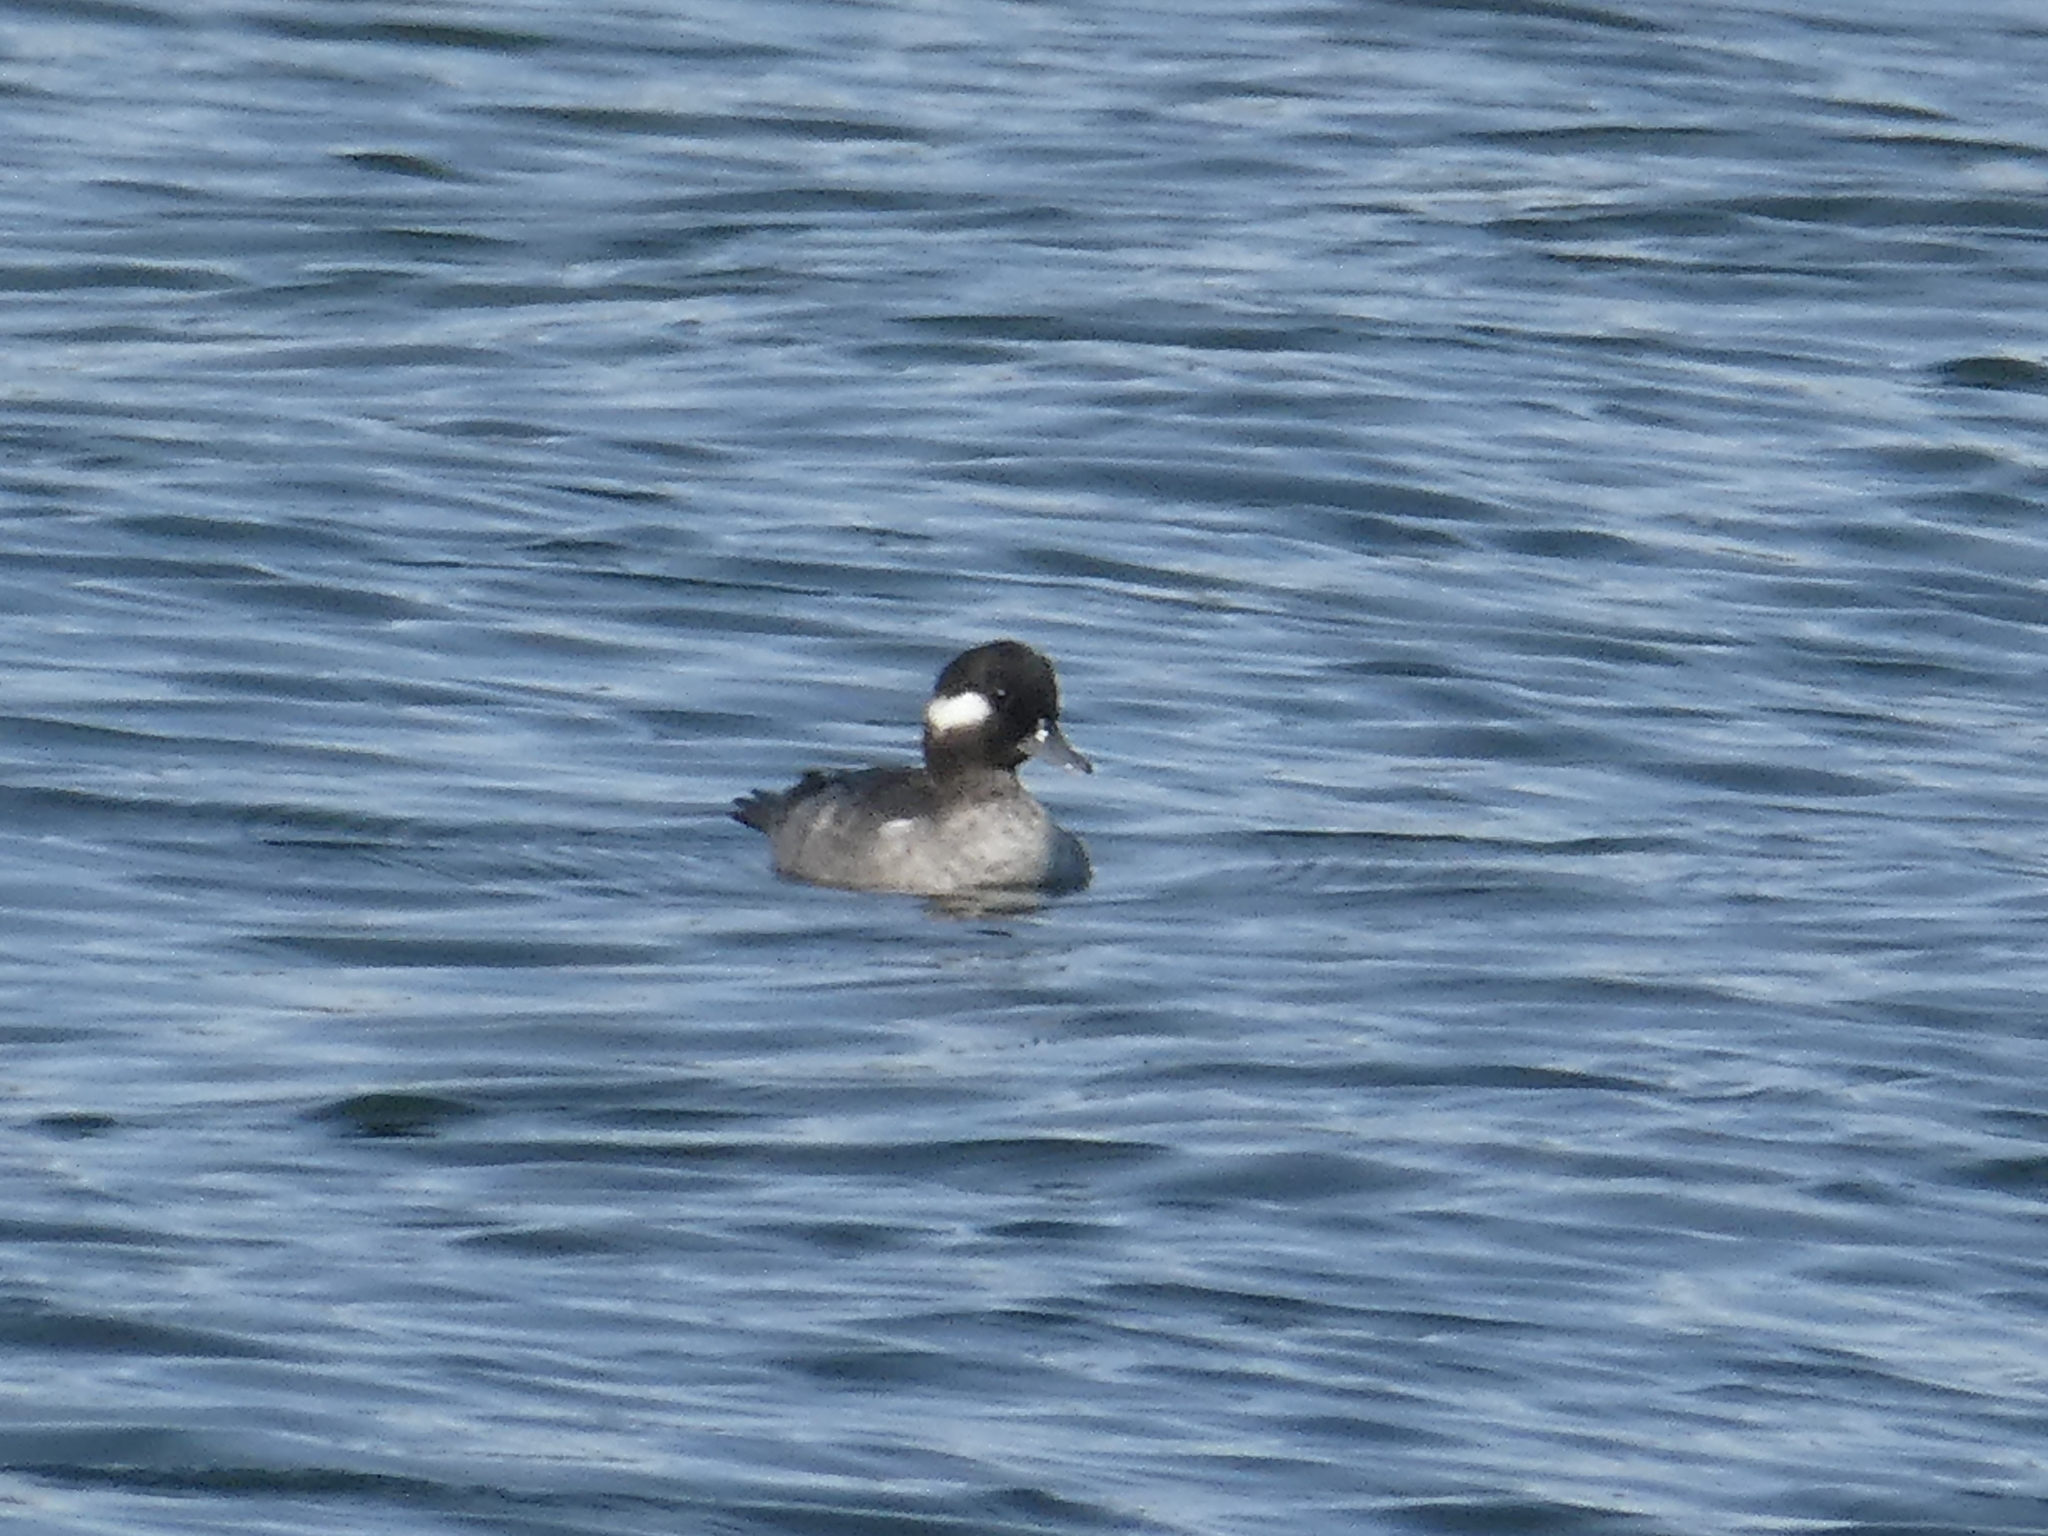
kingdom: Animalia
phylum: Chordata
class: Aves
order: Anseriformes
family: Anatidae
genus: Bucephala
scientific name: Bucephala albeola
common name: Bufflehead
